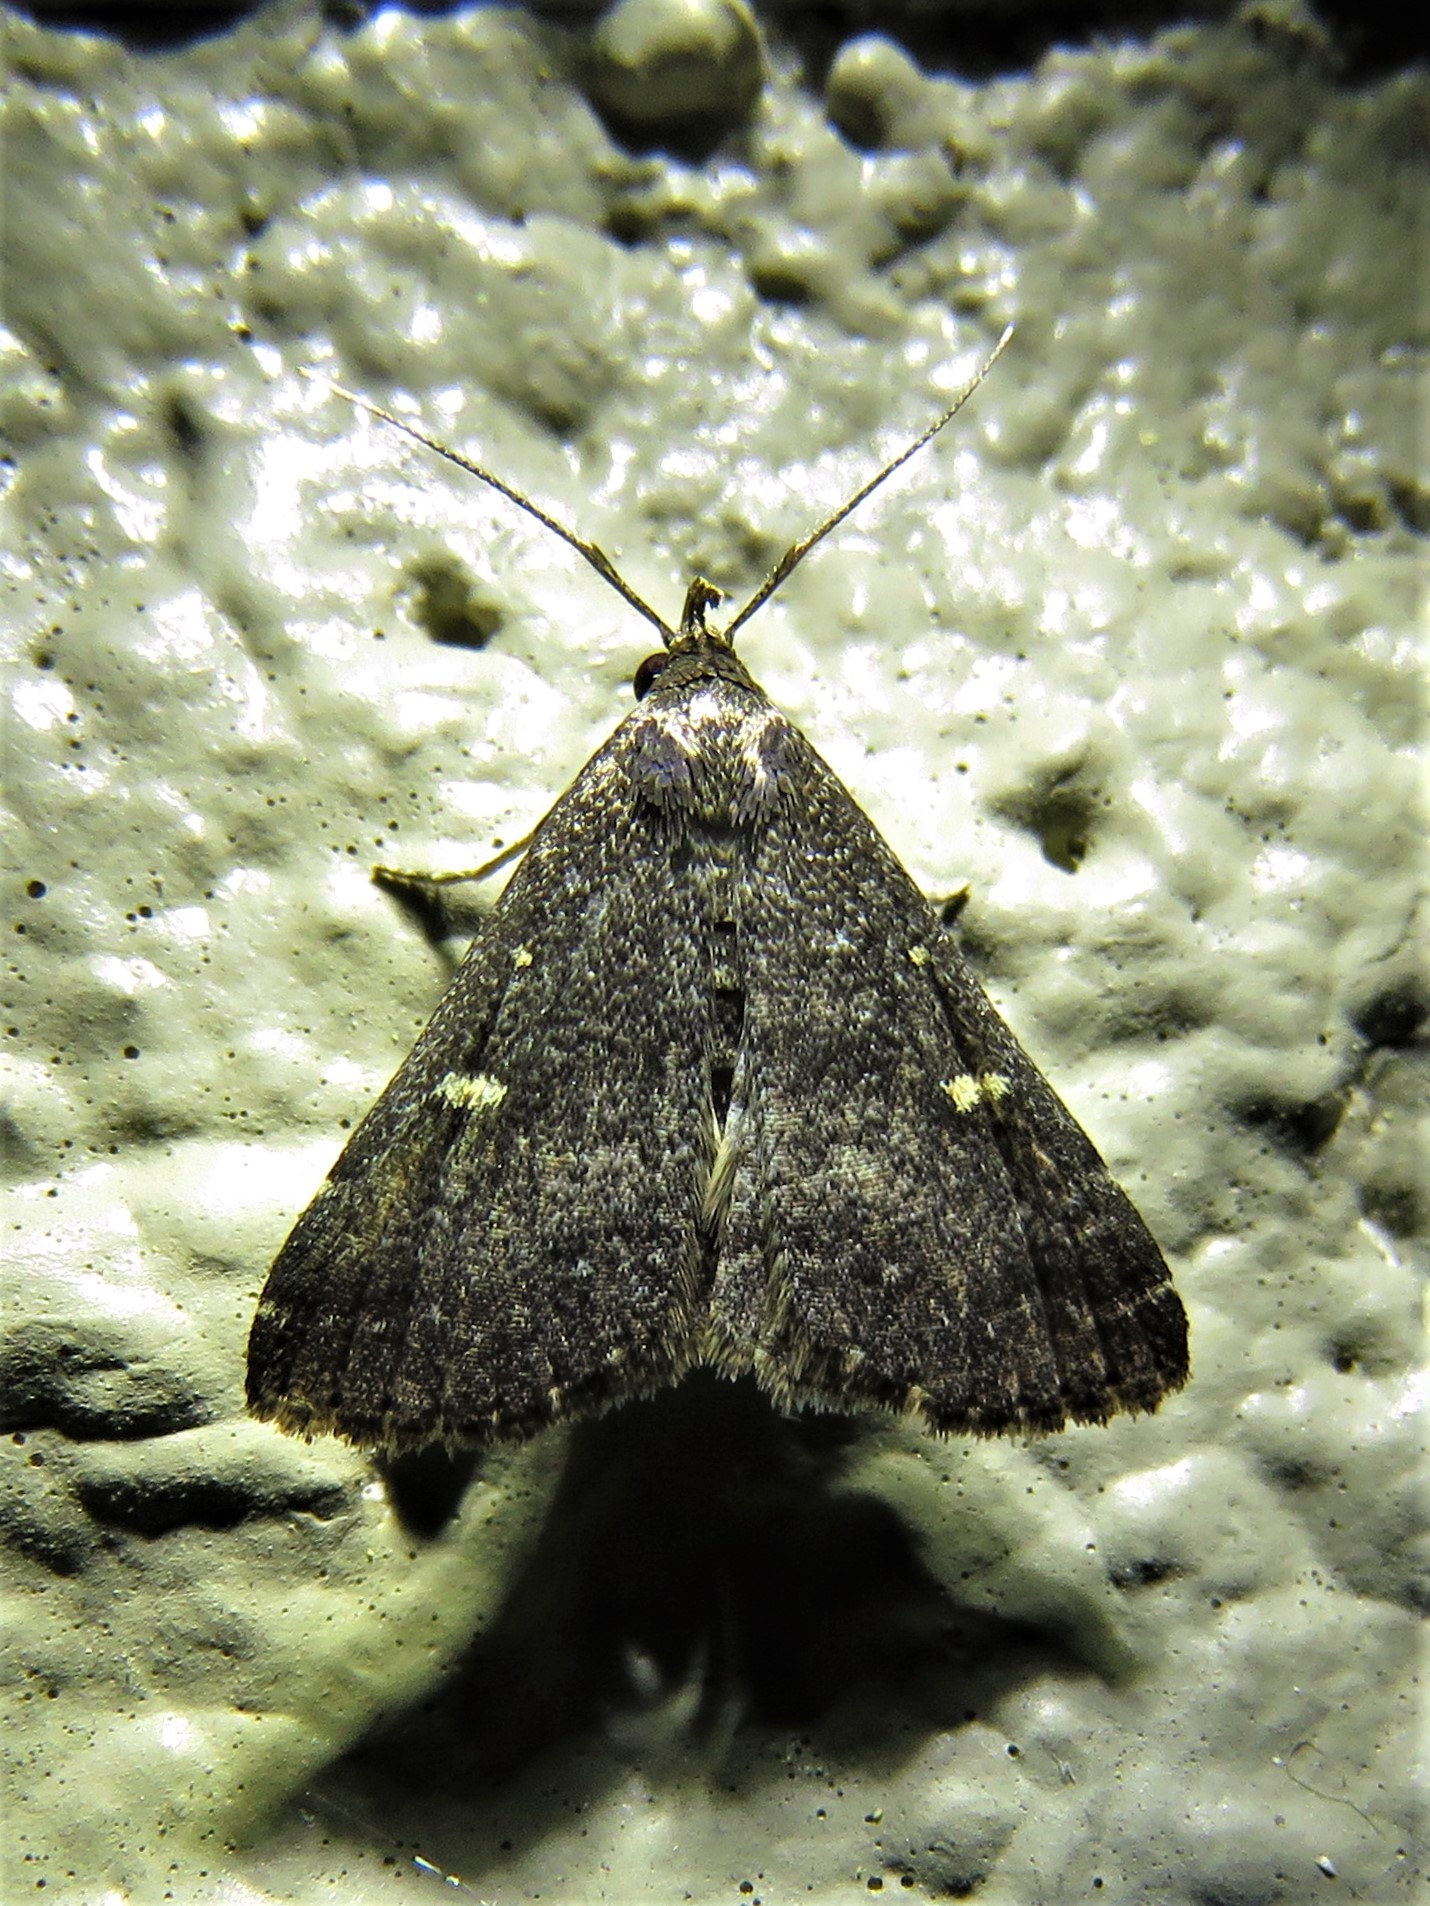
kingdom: Animalia
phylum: Arthropoda
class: Insecta
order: Lepidoptera
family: Erebidae
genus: Tetanolita
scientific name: Tetanolita mynesalis
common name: Smoky tetanolita moth
